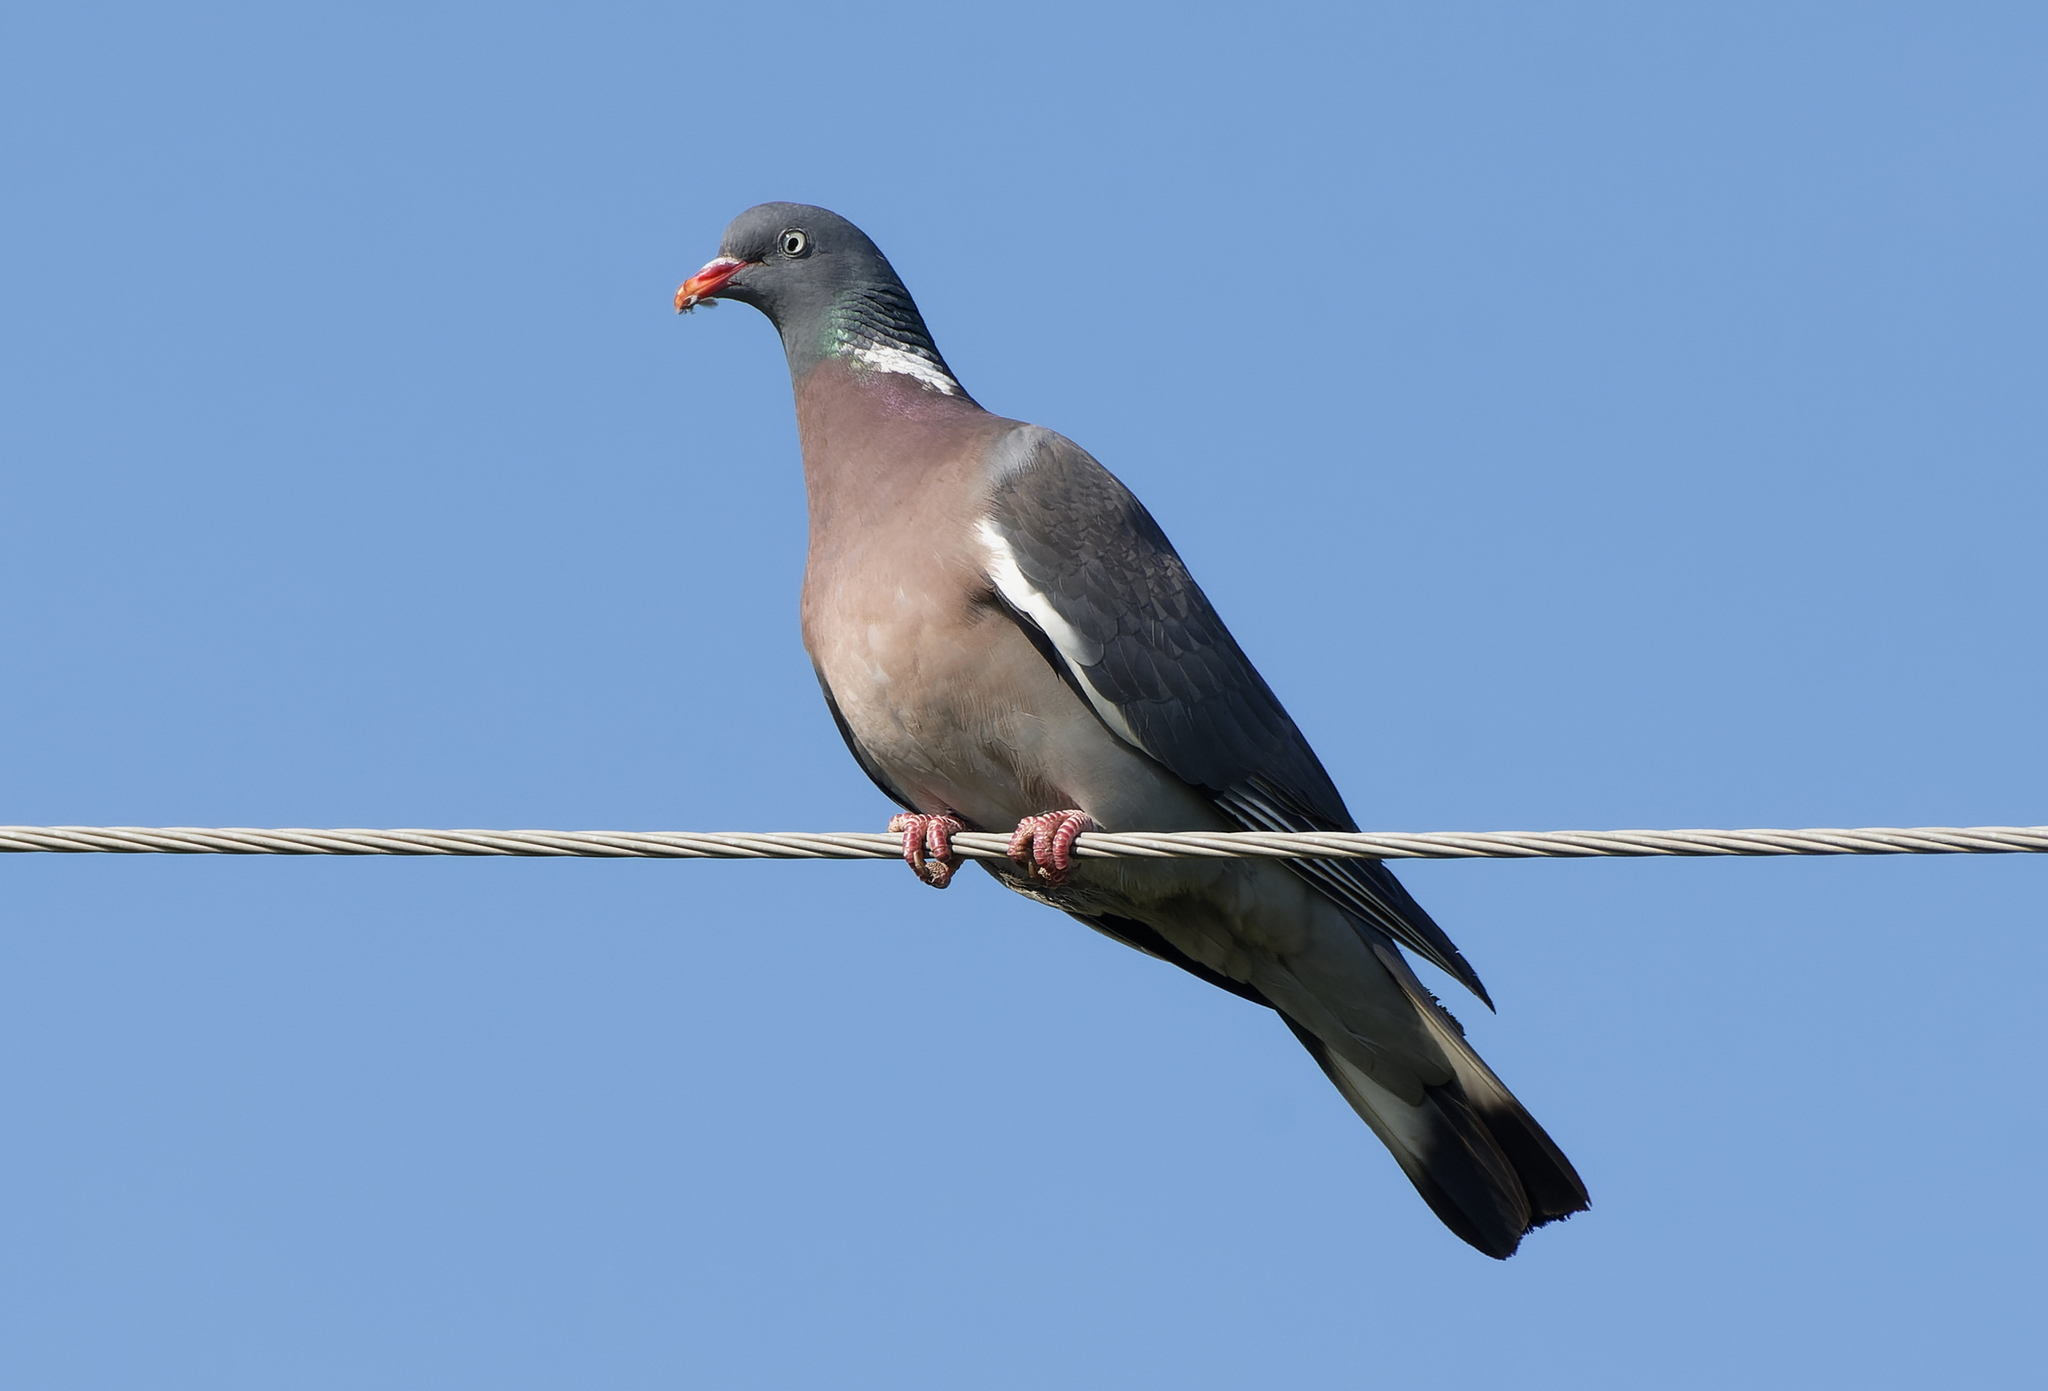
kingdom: Animalia
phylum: Chordata
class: Aves
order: Columbiformes
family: Columbidae
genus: Columba
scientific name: Columba palumbus
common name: Common wood pigeon
